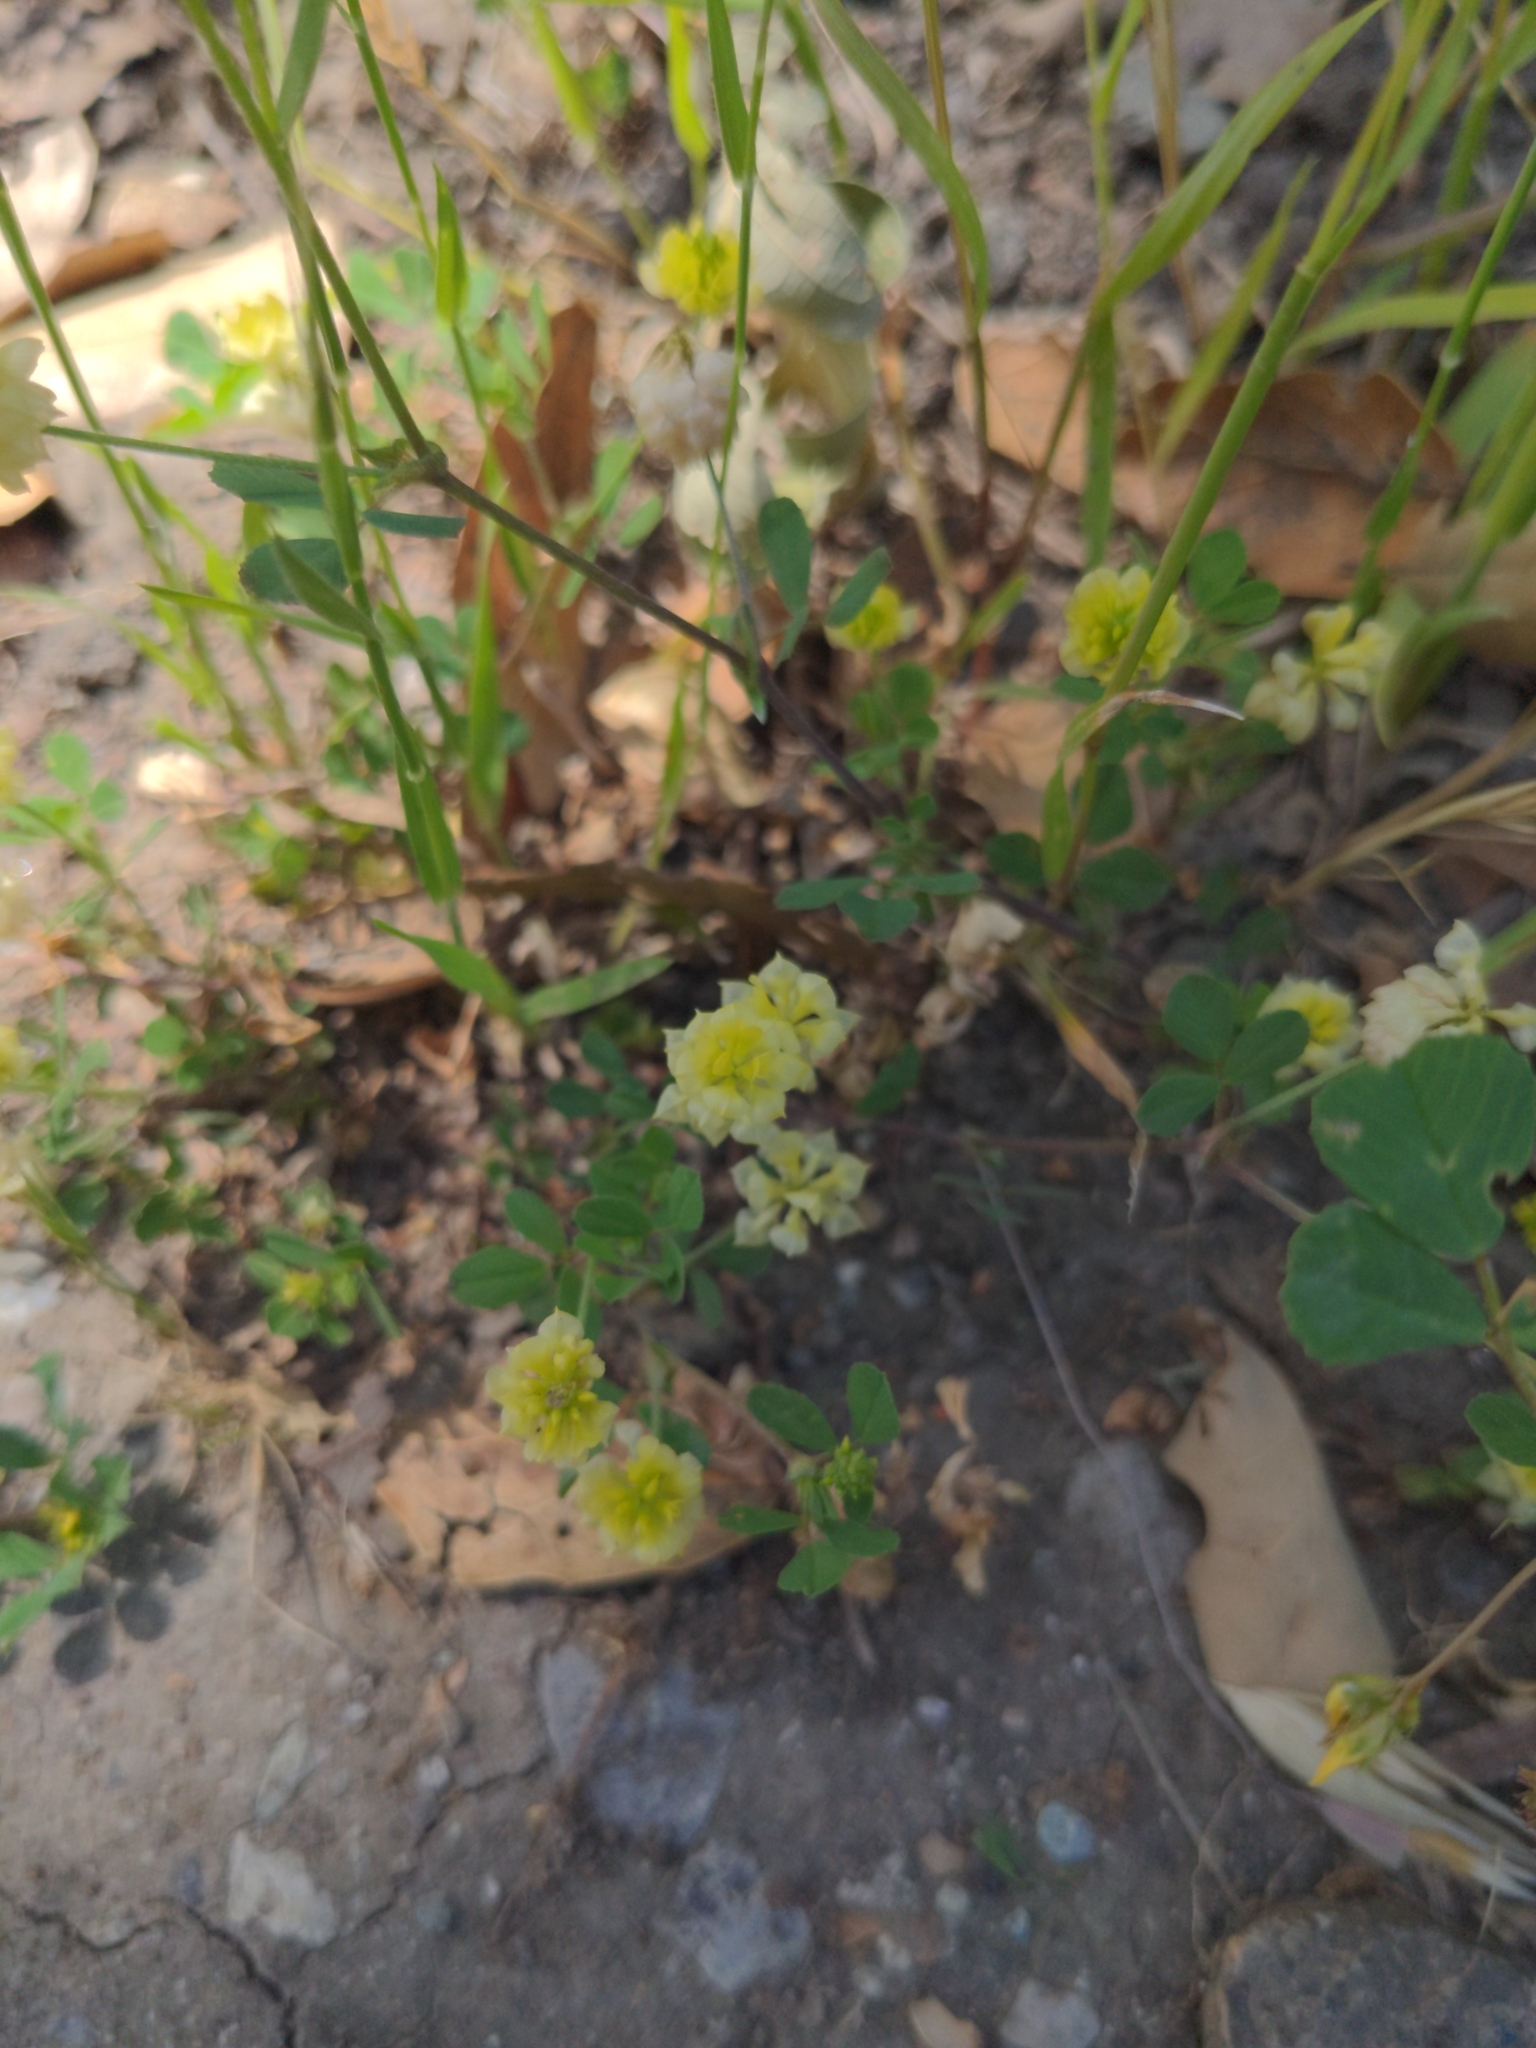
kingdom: Plantae
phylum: Tracheophyta
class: Magnoliopsida
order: Fabales
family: Fabaceae
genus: Trifolium
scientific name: Trifolium campestre
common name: Field clover
